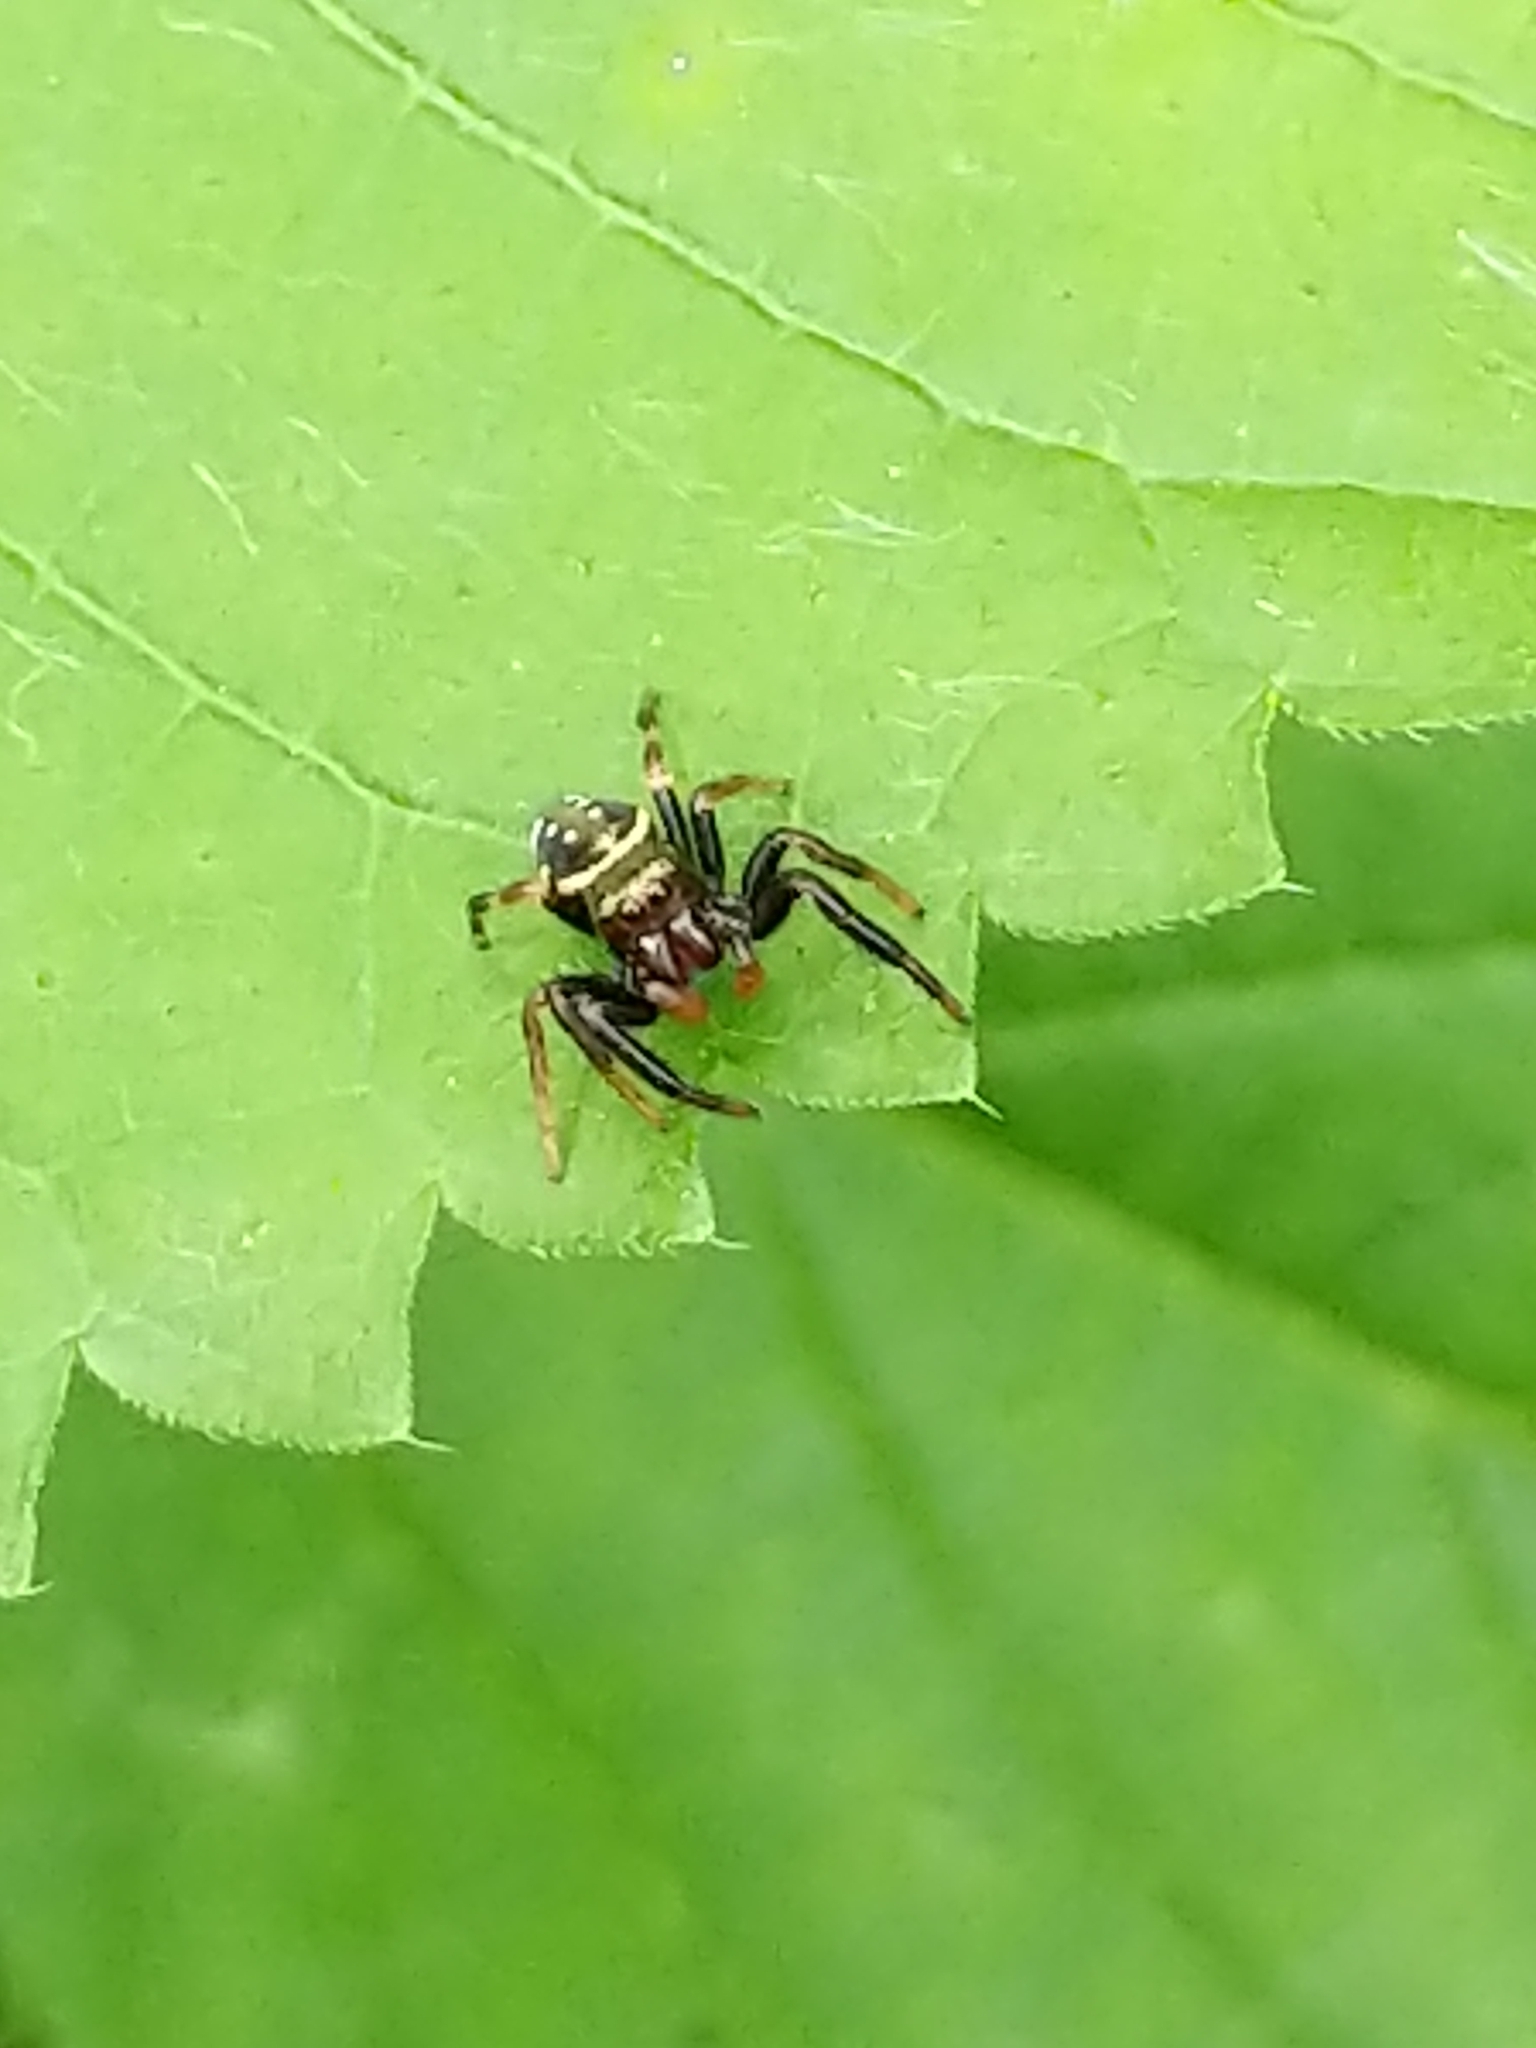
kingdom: Animalia
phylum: Arthropoda
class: Arachnida
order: Araneae
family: Salticidae
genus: Paraphidippus
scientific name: Paraphidippus aurantius
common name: Jumping spiders
